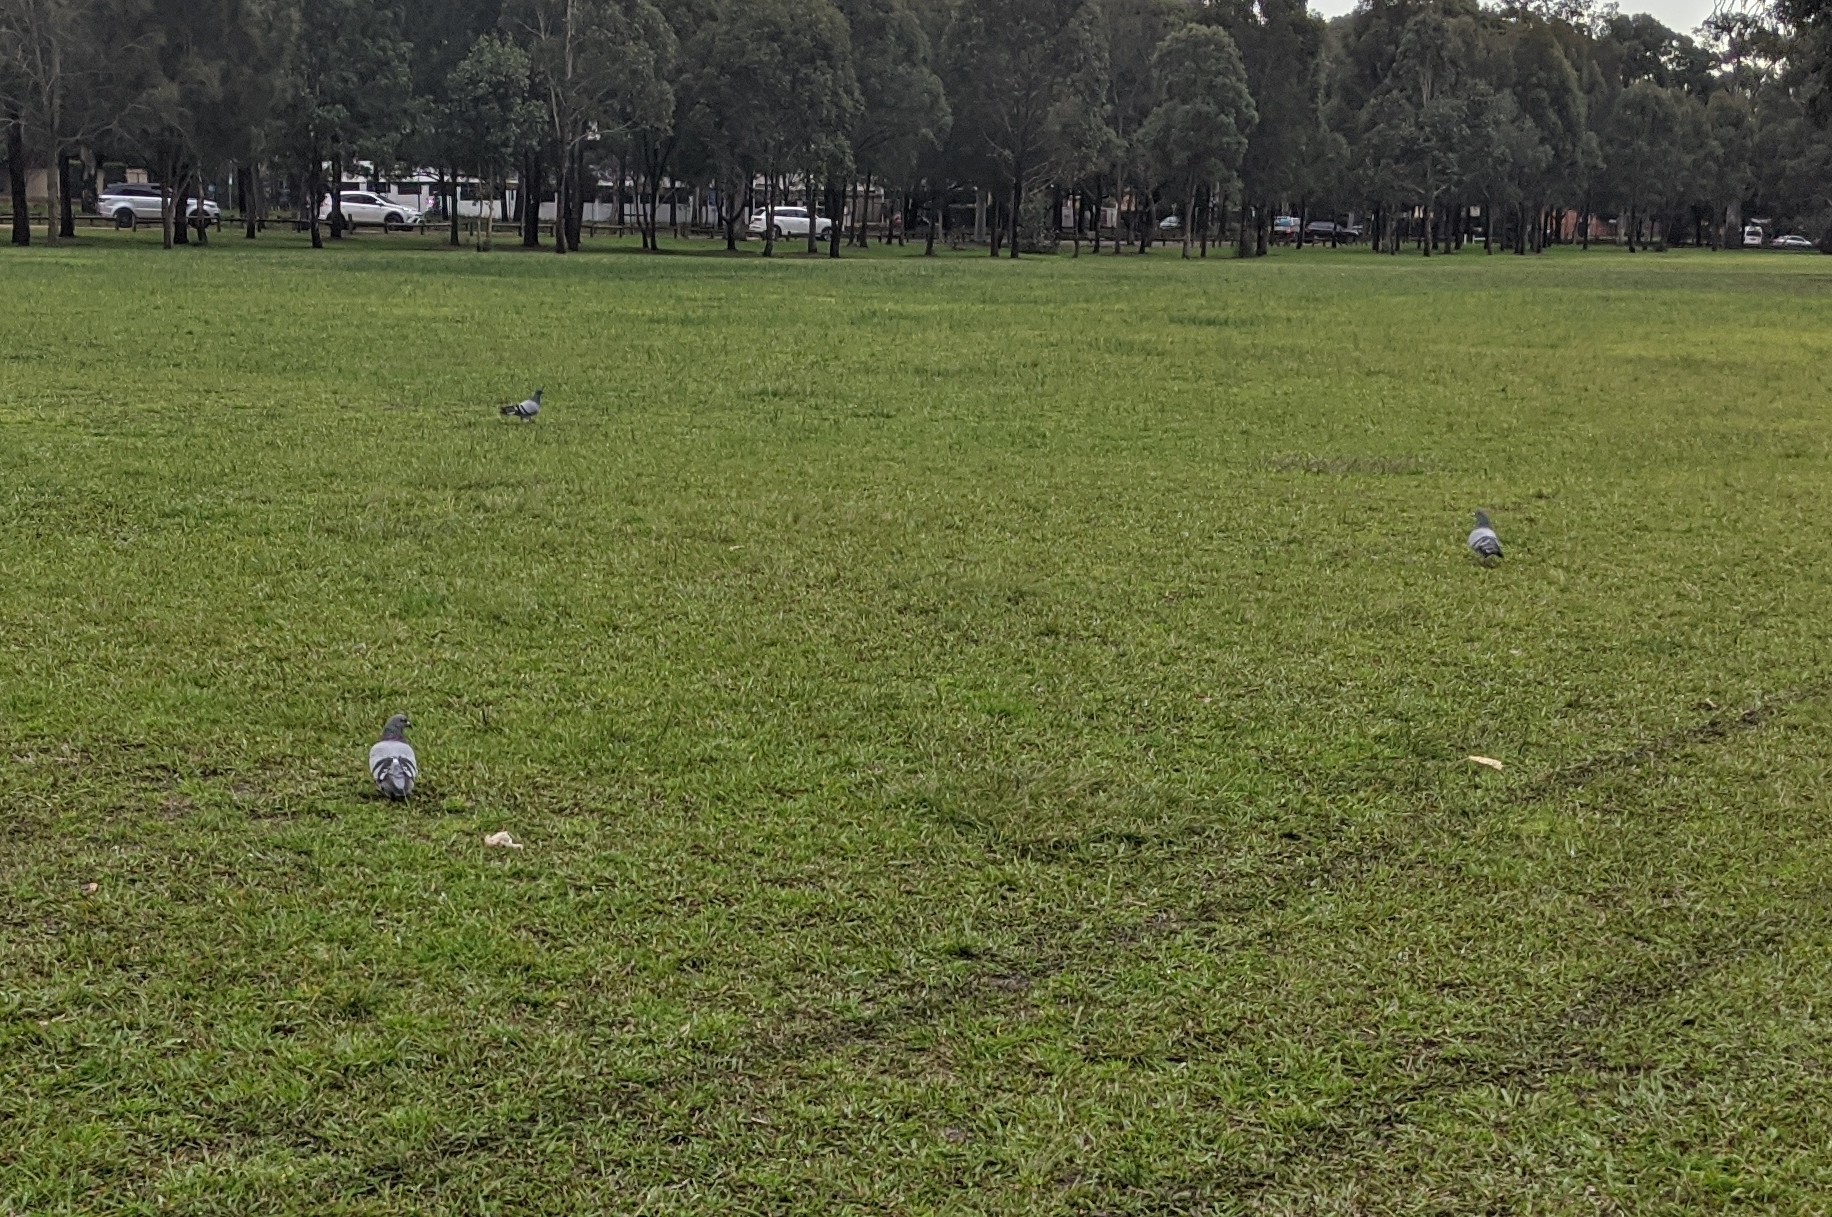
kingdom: Animalia
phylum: Chordata
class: Aves
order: Columbiformes
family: Columbidae
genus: Columba
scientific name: Columba livia
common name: Rock pigeon
